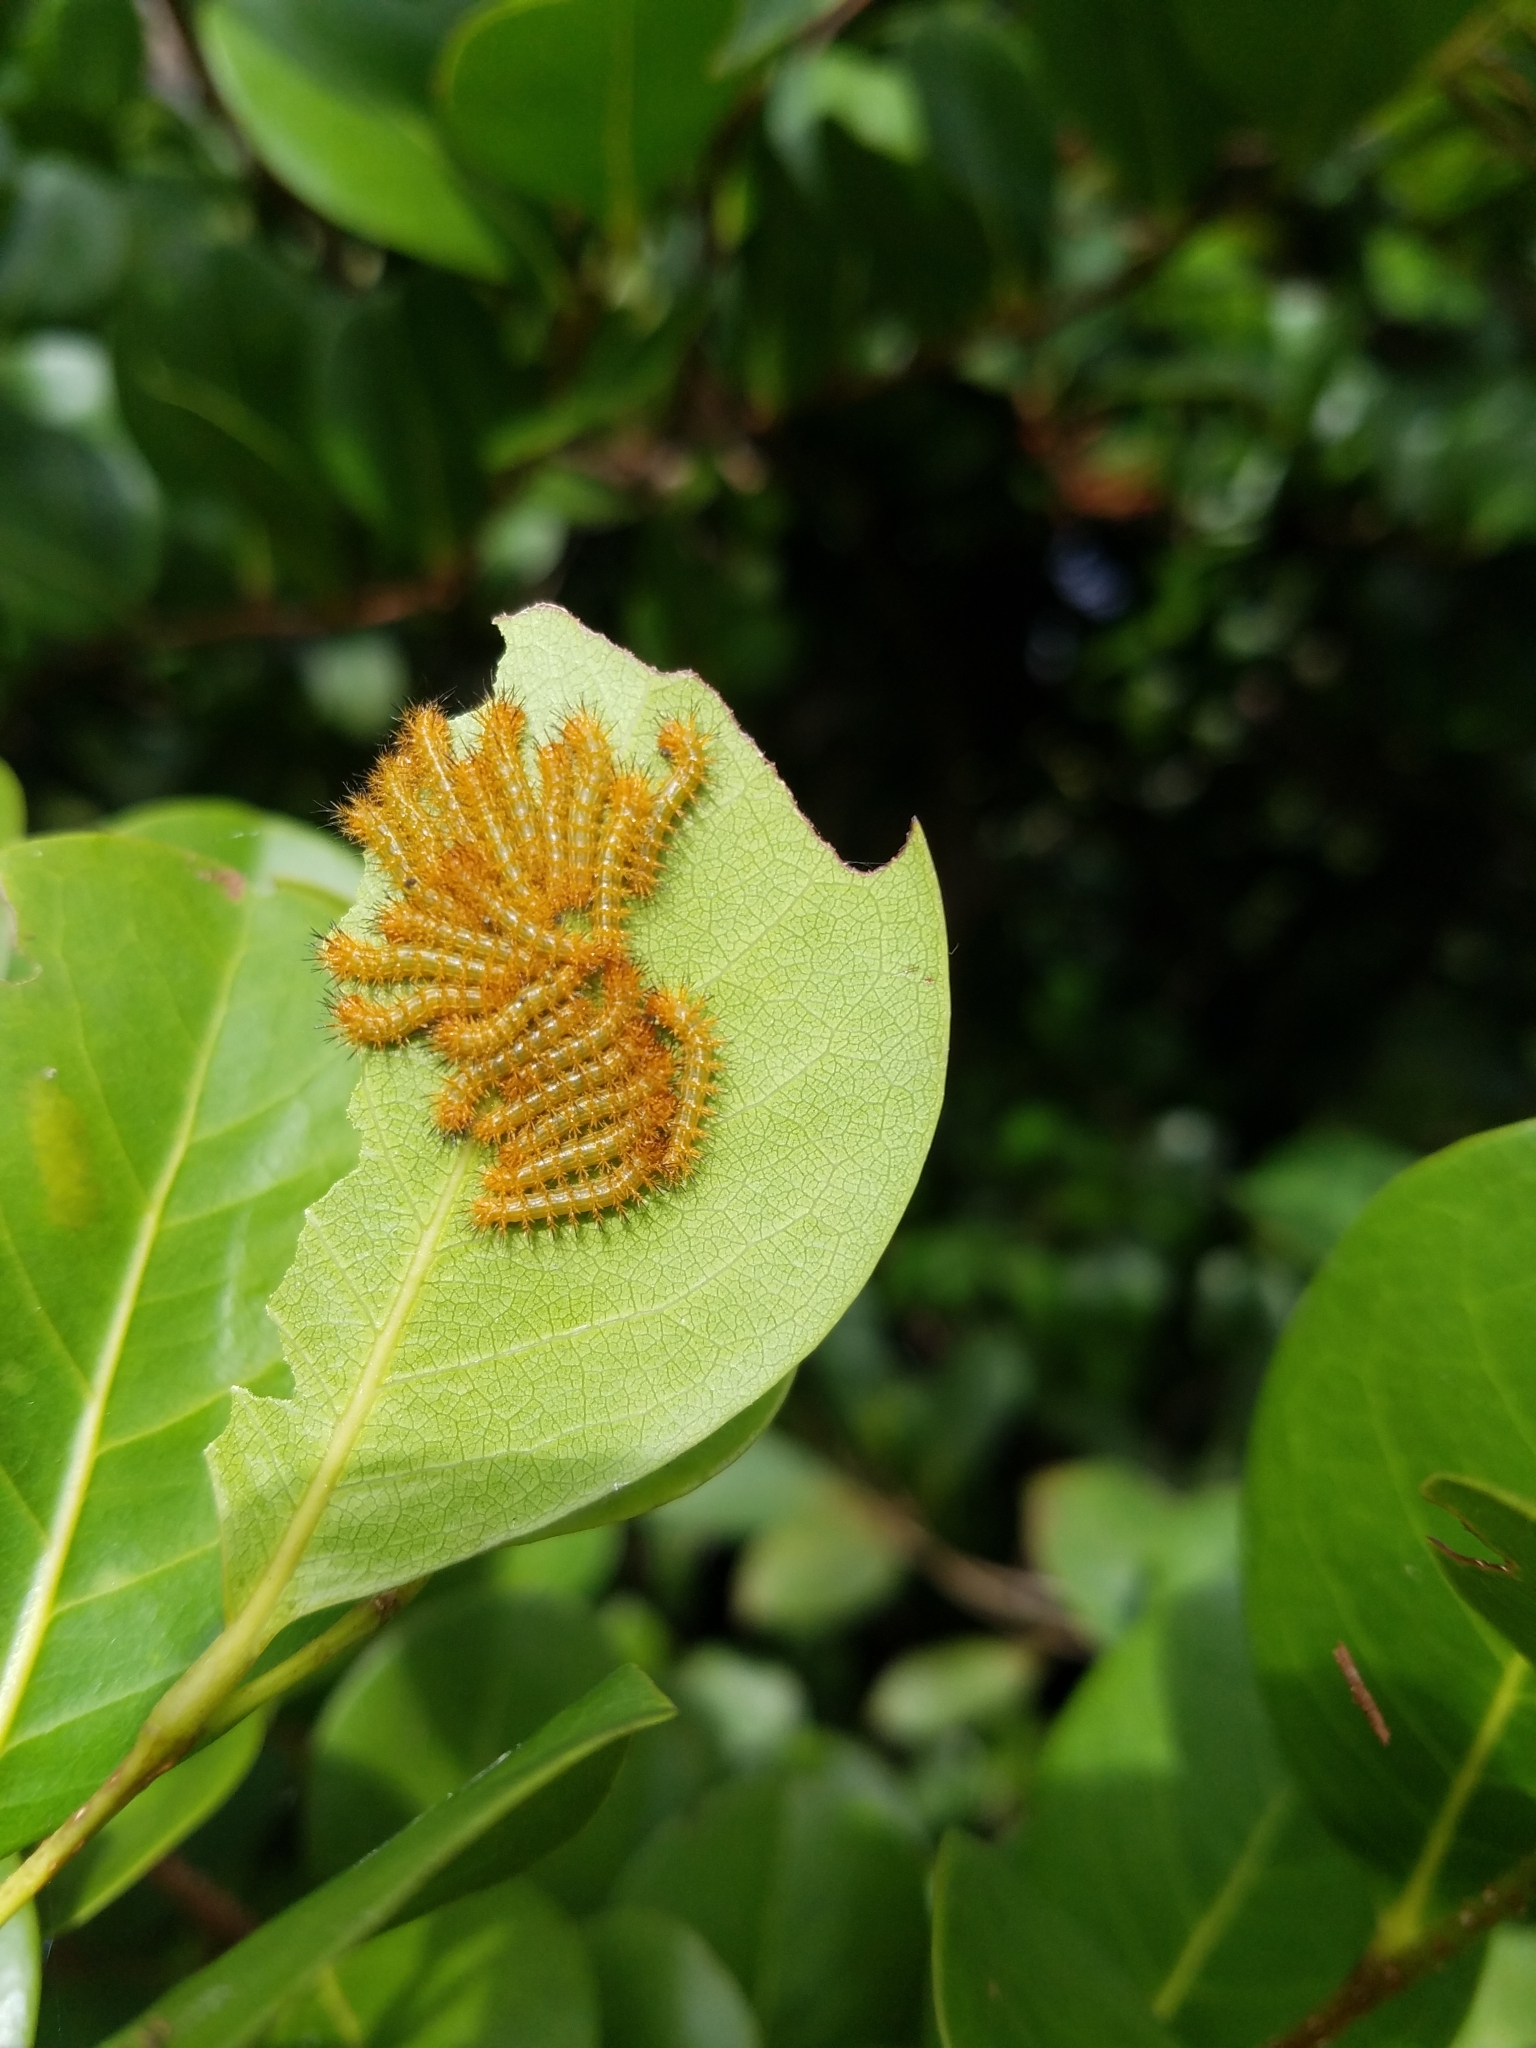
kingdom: Animalia
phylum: Arthropoda
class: Insecta
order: Lepidoptera
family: Saturniidae
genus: Automeris
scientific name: Automeris io
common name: Io moth
